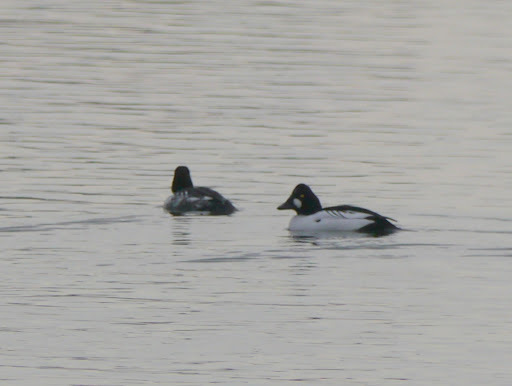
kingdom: Animalia
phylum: Chordata
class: Aves
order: Anseriformes
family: Anatidae
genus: Bucephala
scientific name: Bucephala clangula
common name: Common goldeneye
